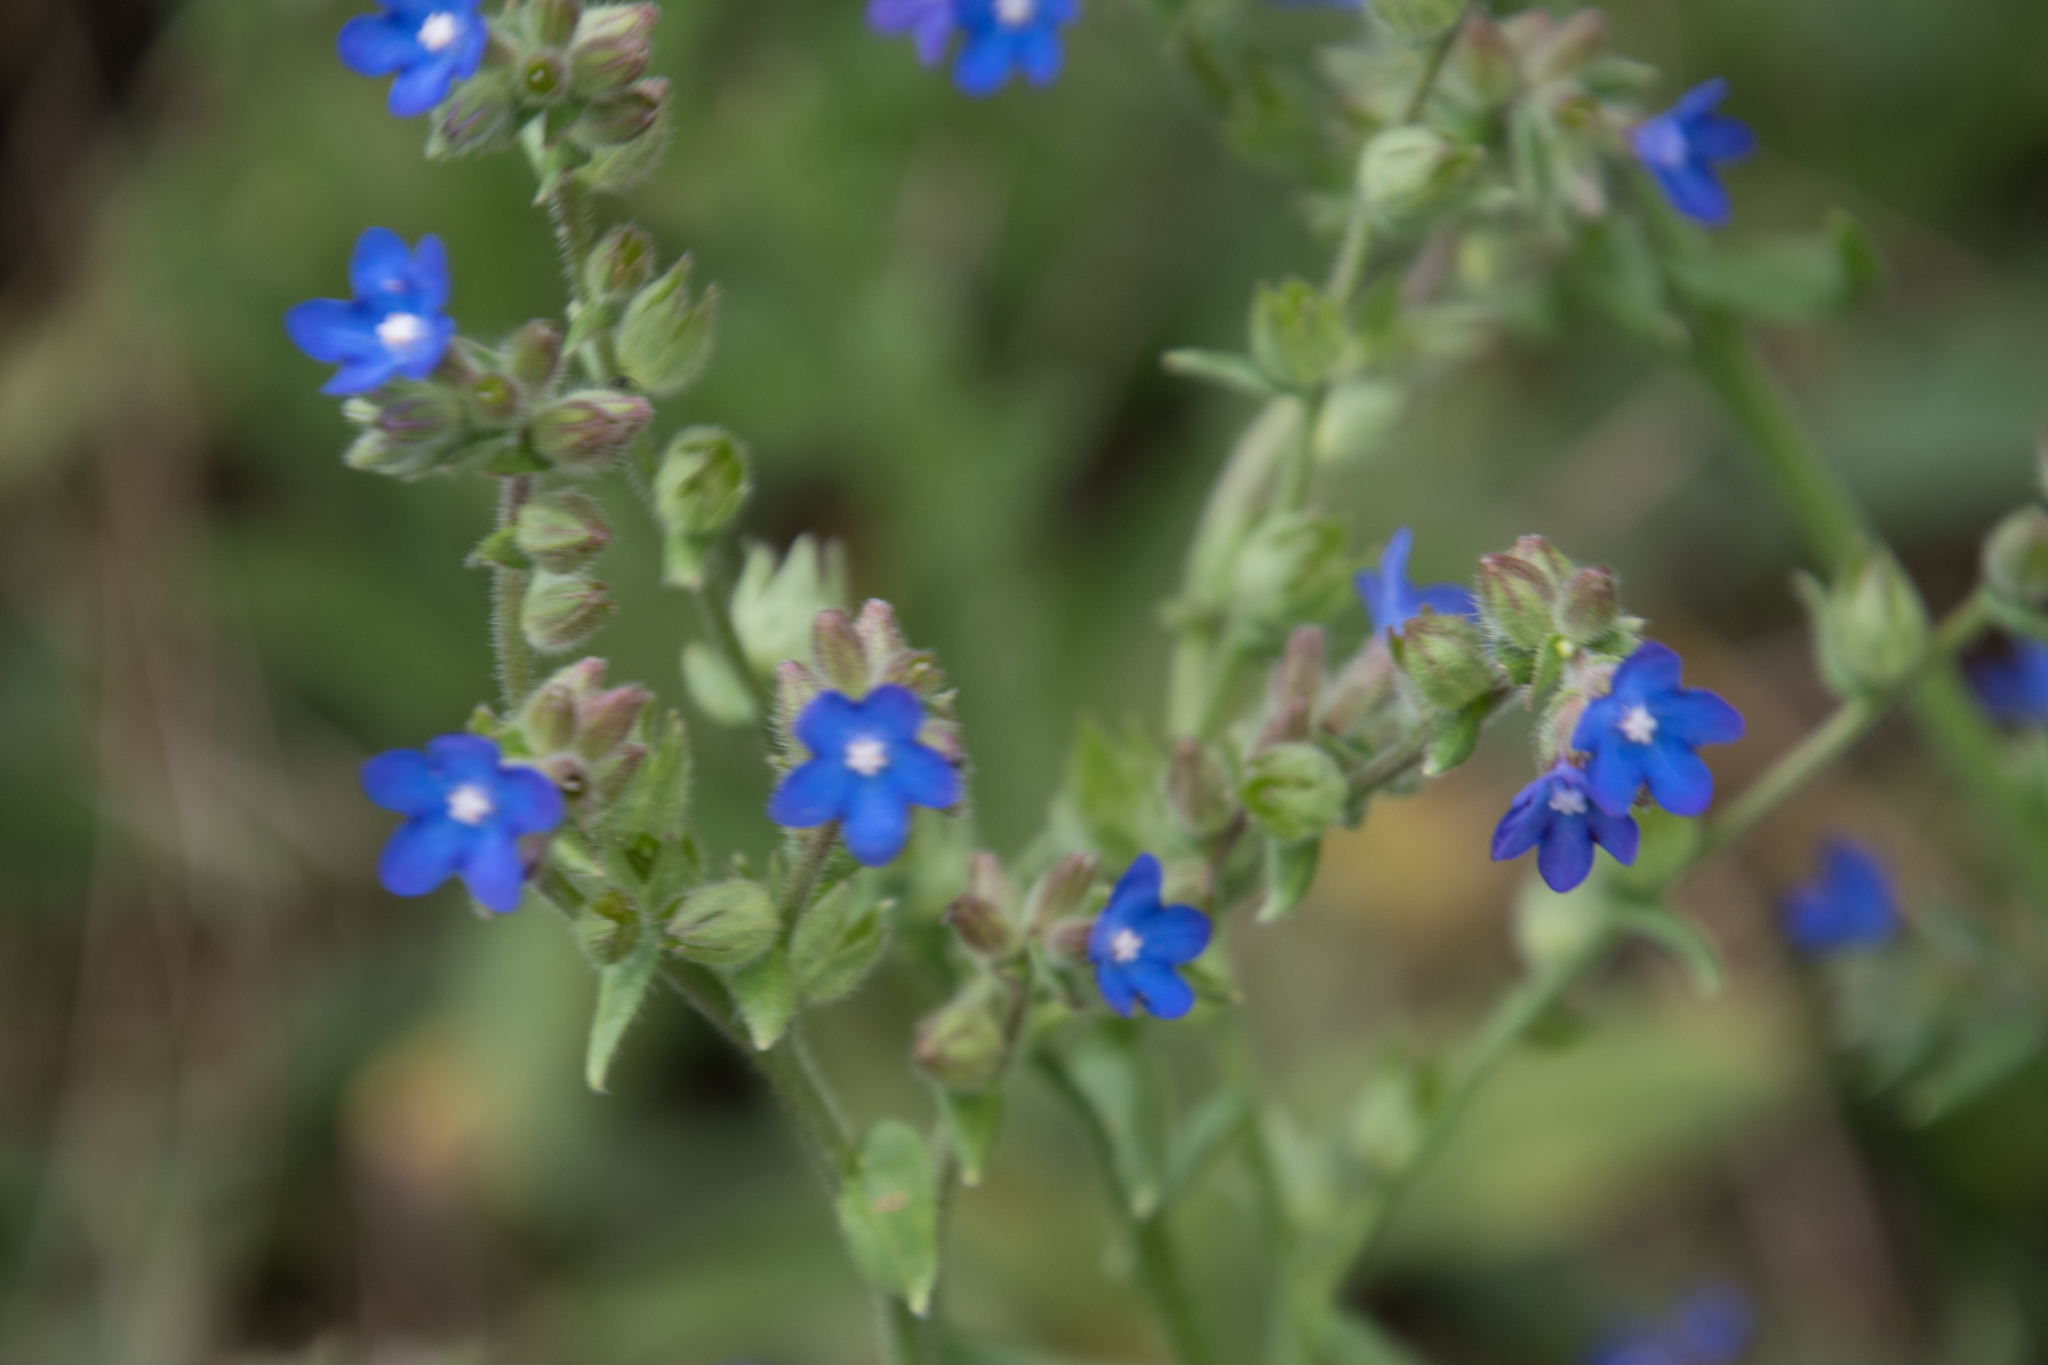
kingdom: Plantae
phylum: Tracheophyta
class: Magnoliopsida
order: Boraginales
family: Boraginaceae
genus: Anchusa
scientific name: Anchusa officinalis
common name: Alkanet
